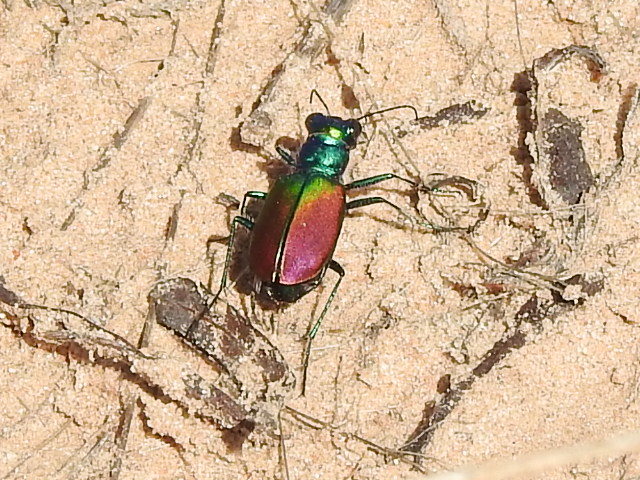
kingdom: Animalia
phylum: Arthropoda
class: Insecta
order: Coleoptera
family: Carabidae
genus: Cicindela
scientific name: Cicindela scutellaris
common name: Festive tiger beetle
